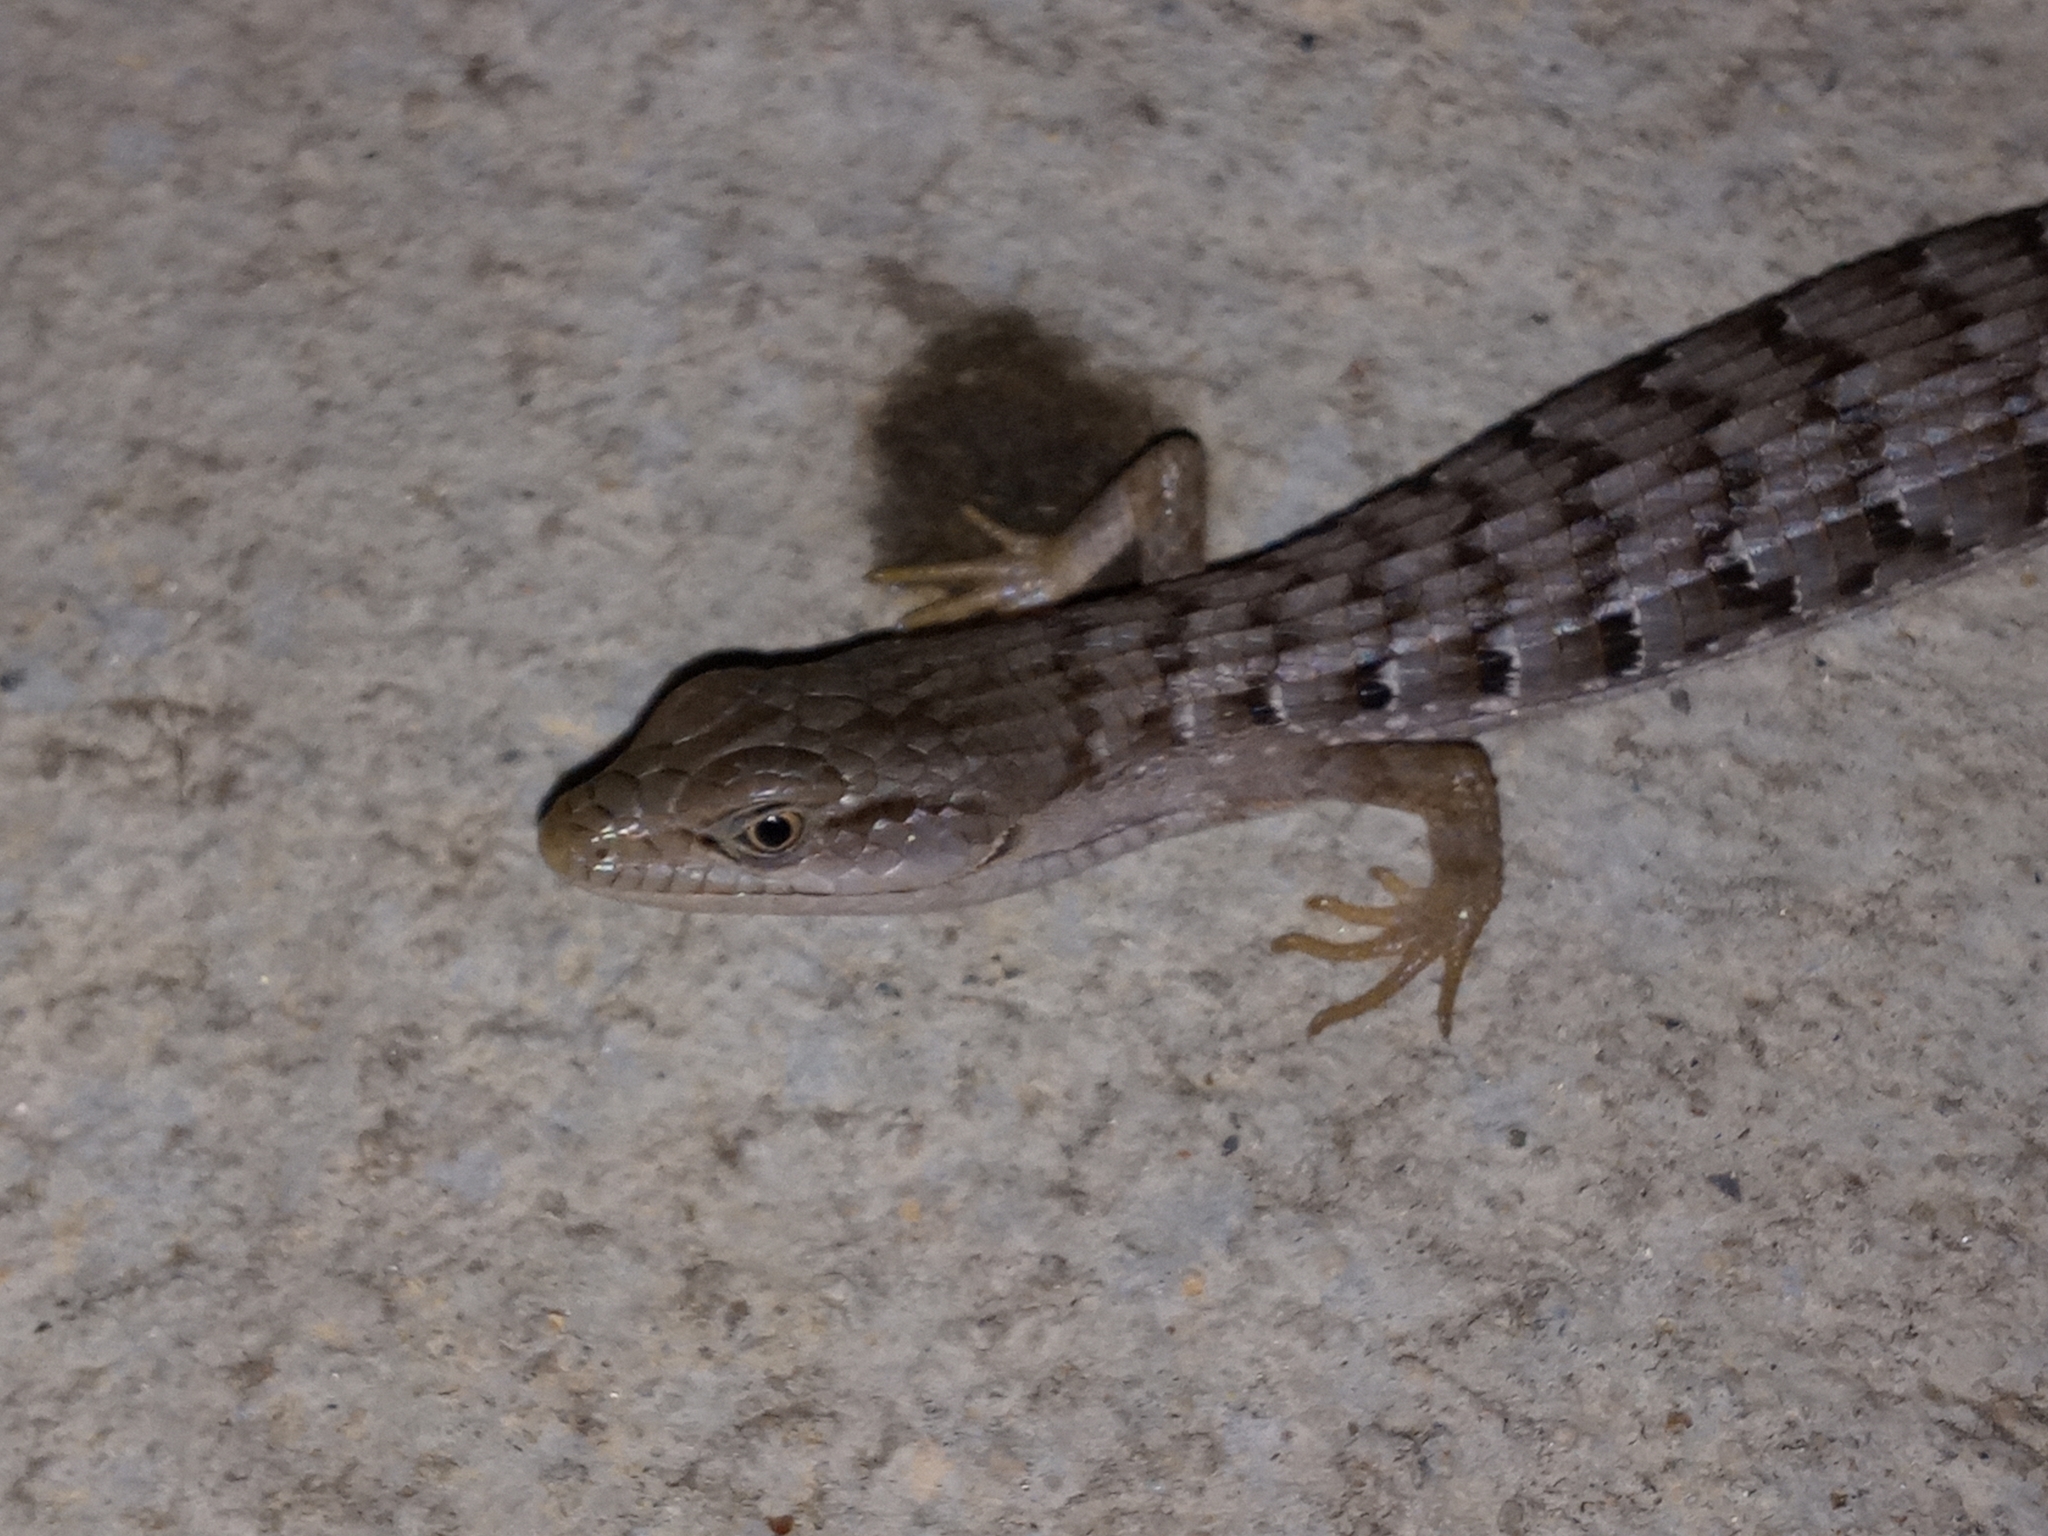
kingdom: Animalia
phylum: Chordata
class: Squamata
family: Anguidae
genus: Elgaria
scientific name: Elgaria multicarinata
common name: Southern alligator lizard
